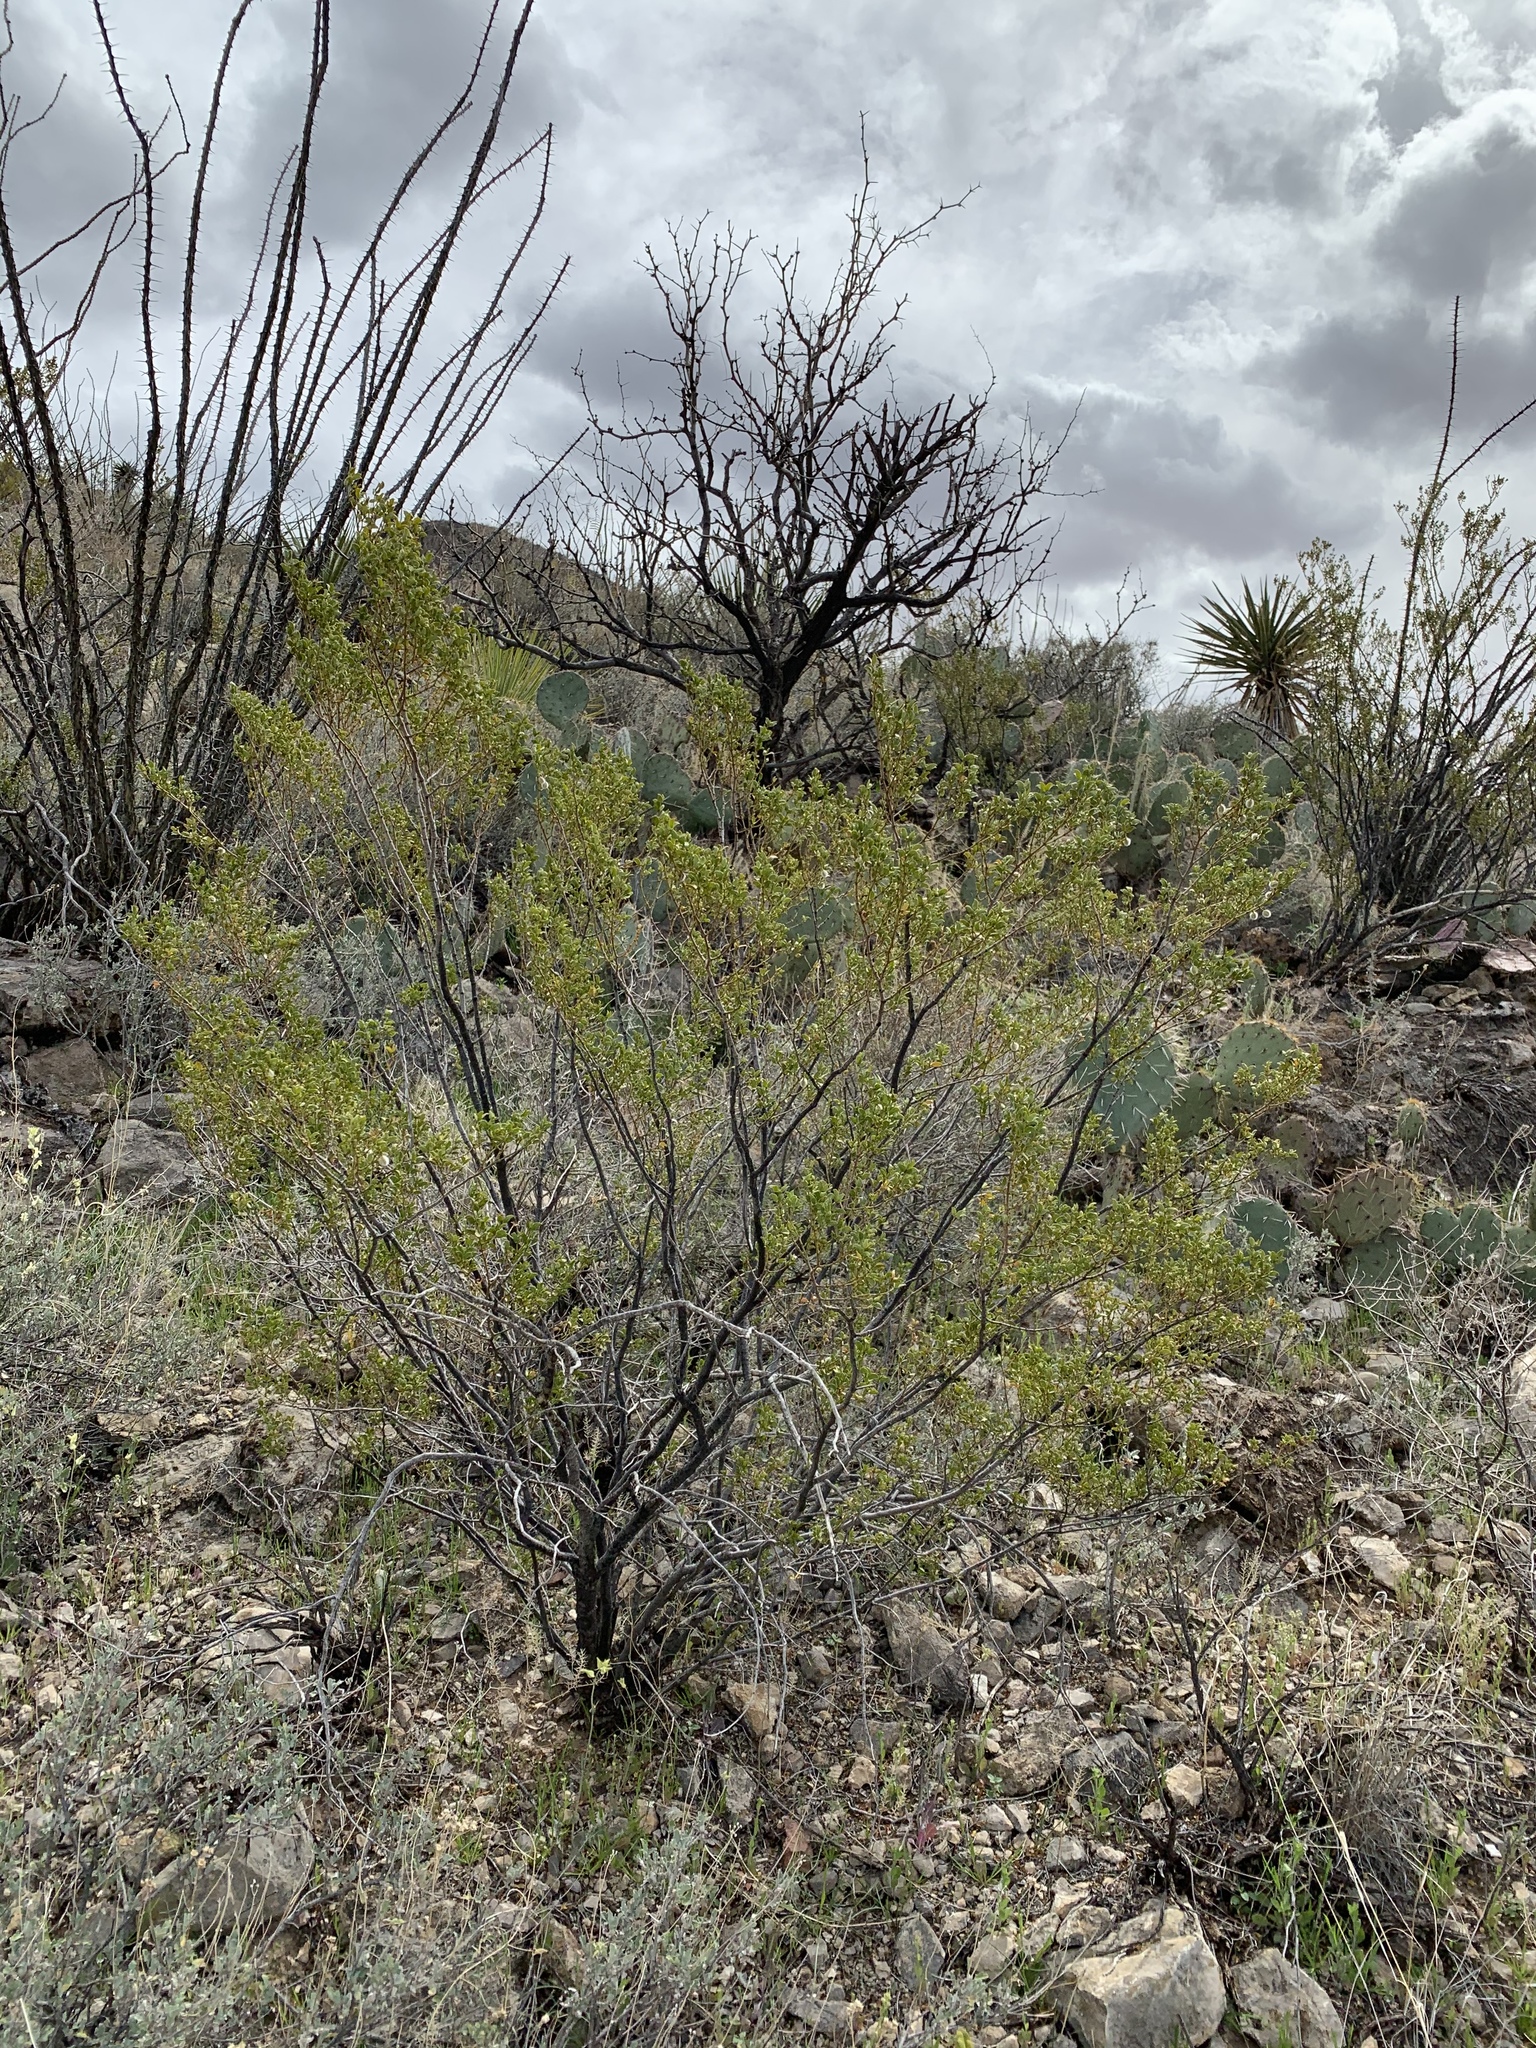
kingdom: Plantae
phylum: Tracheophyta
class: Magnoliopsida
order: Zygophyllales
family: Zygophyllaceae
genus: Larrea
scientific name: Larrea tridentata
